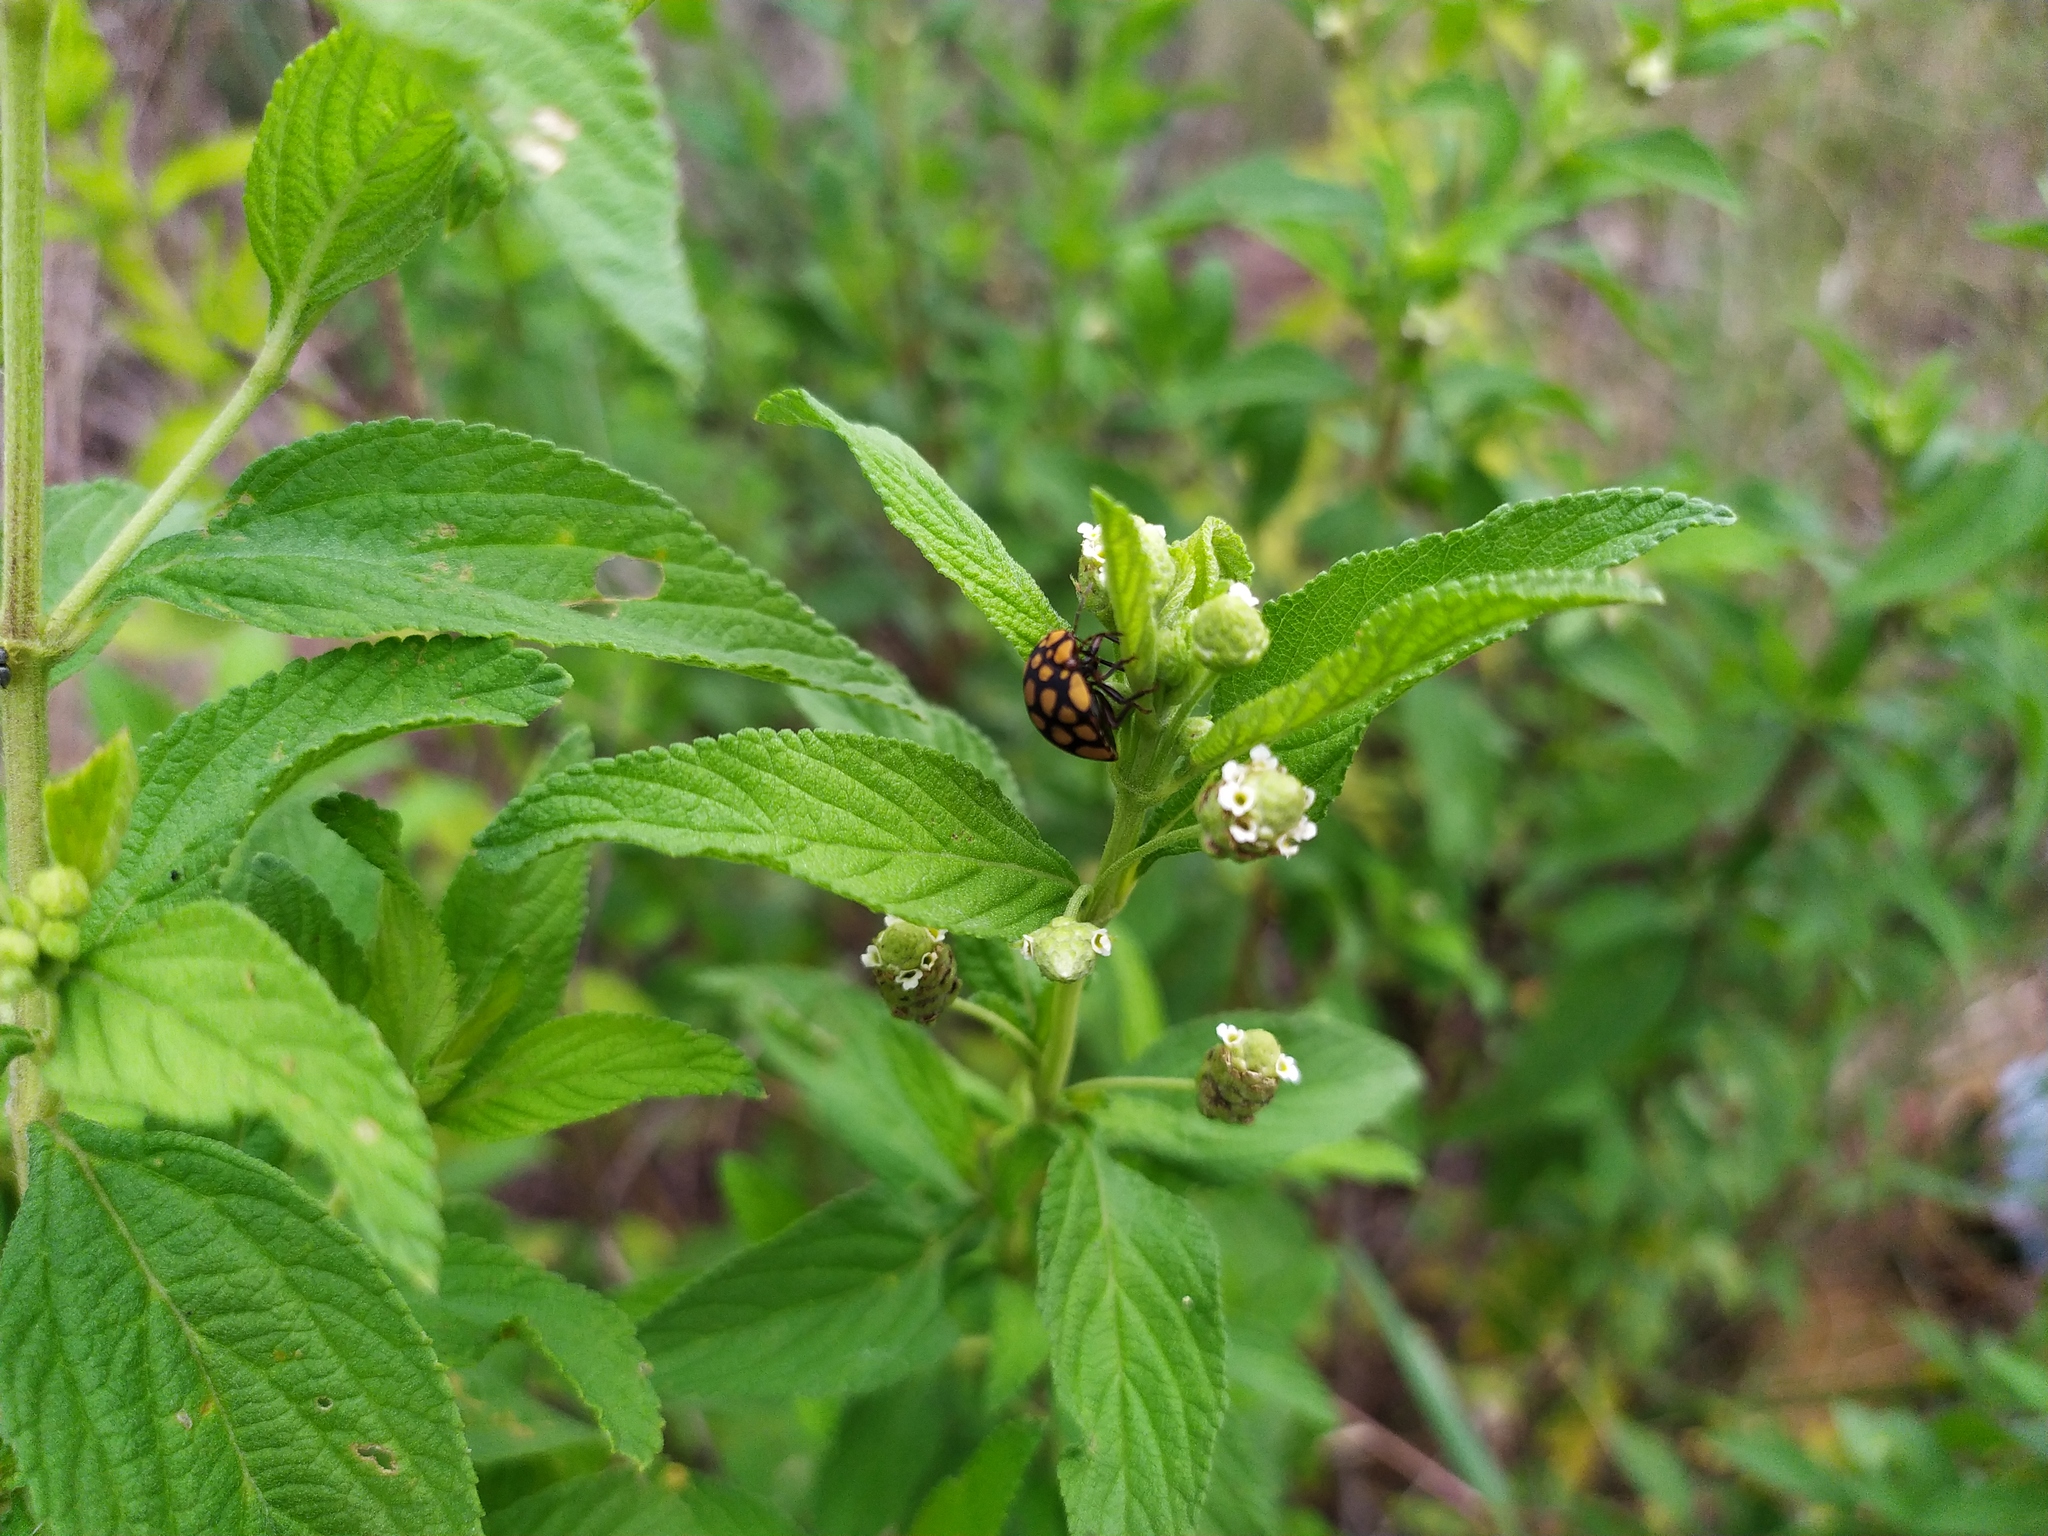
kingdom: Plantae
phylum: Tracheophyta
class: Magnoliopsida
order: Lamiales
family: Verbenaceae
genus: Lippia
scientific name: Lippia javanica
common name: Lemonbush
